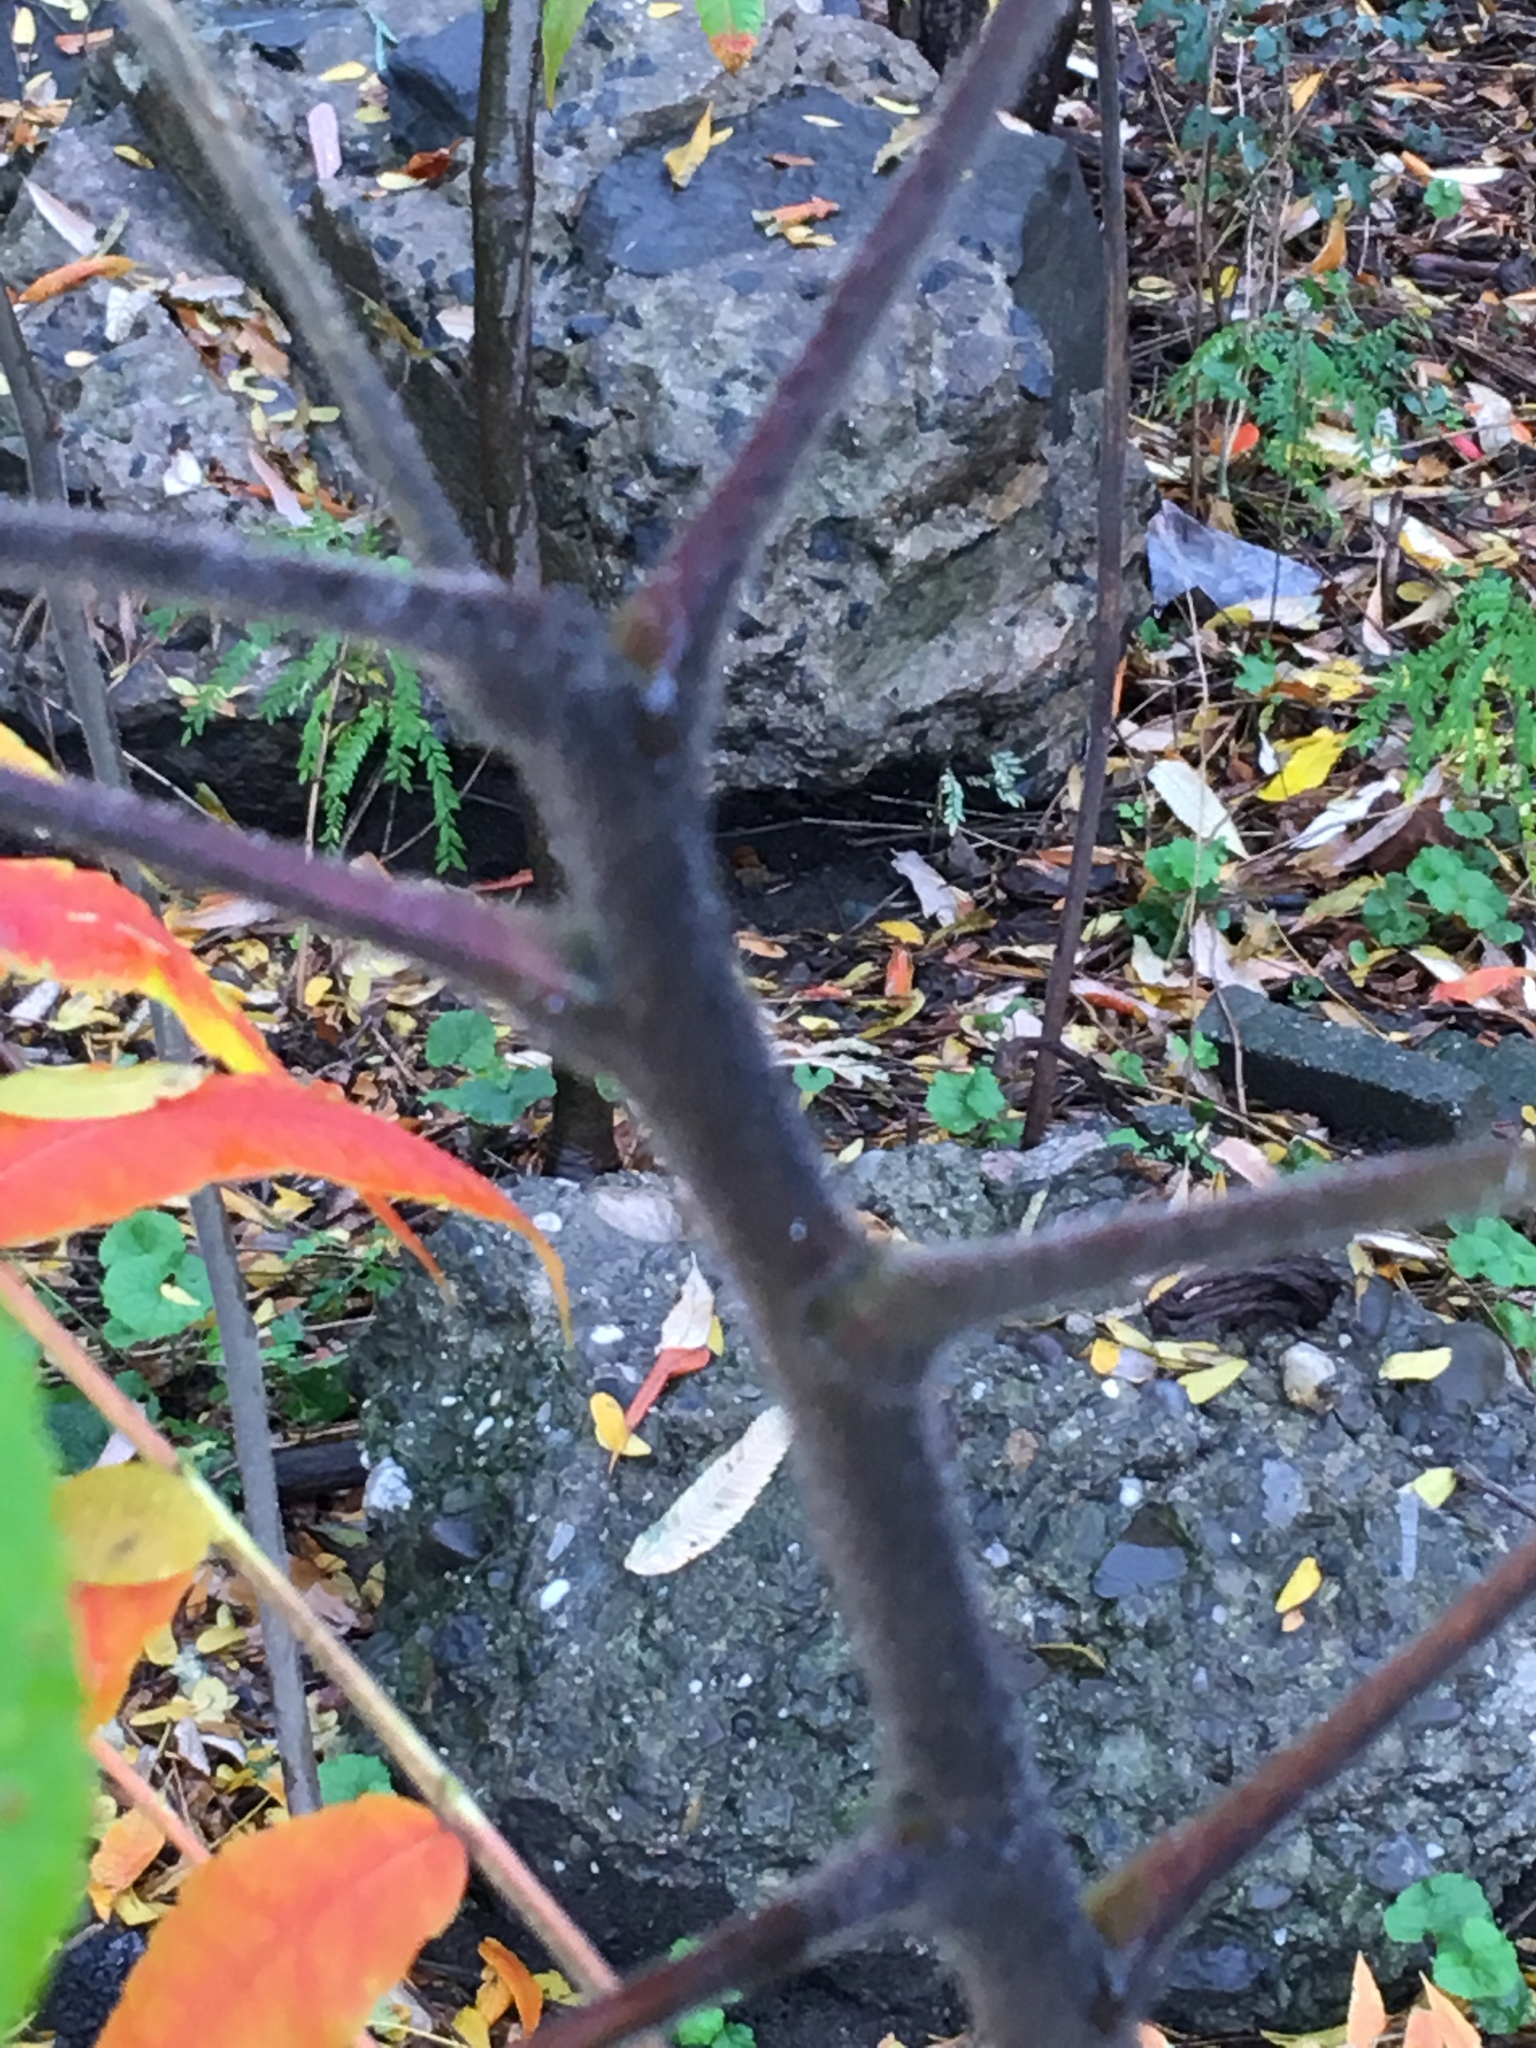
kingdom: Plantae
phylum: Tracheophyta
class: Magnoliopsida
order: Sapindales
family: Anacardiaceae
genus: Rhus
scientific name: Rhus typhina
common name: Staghorn sumac
